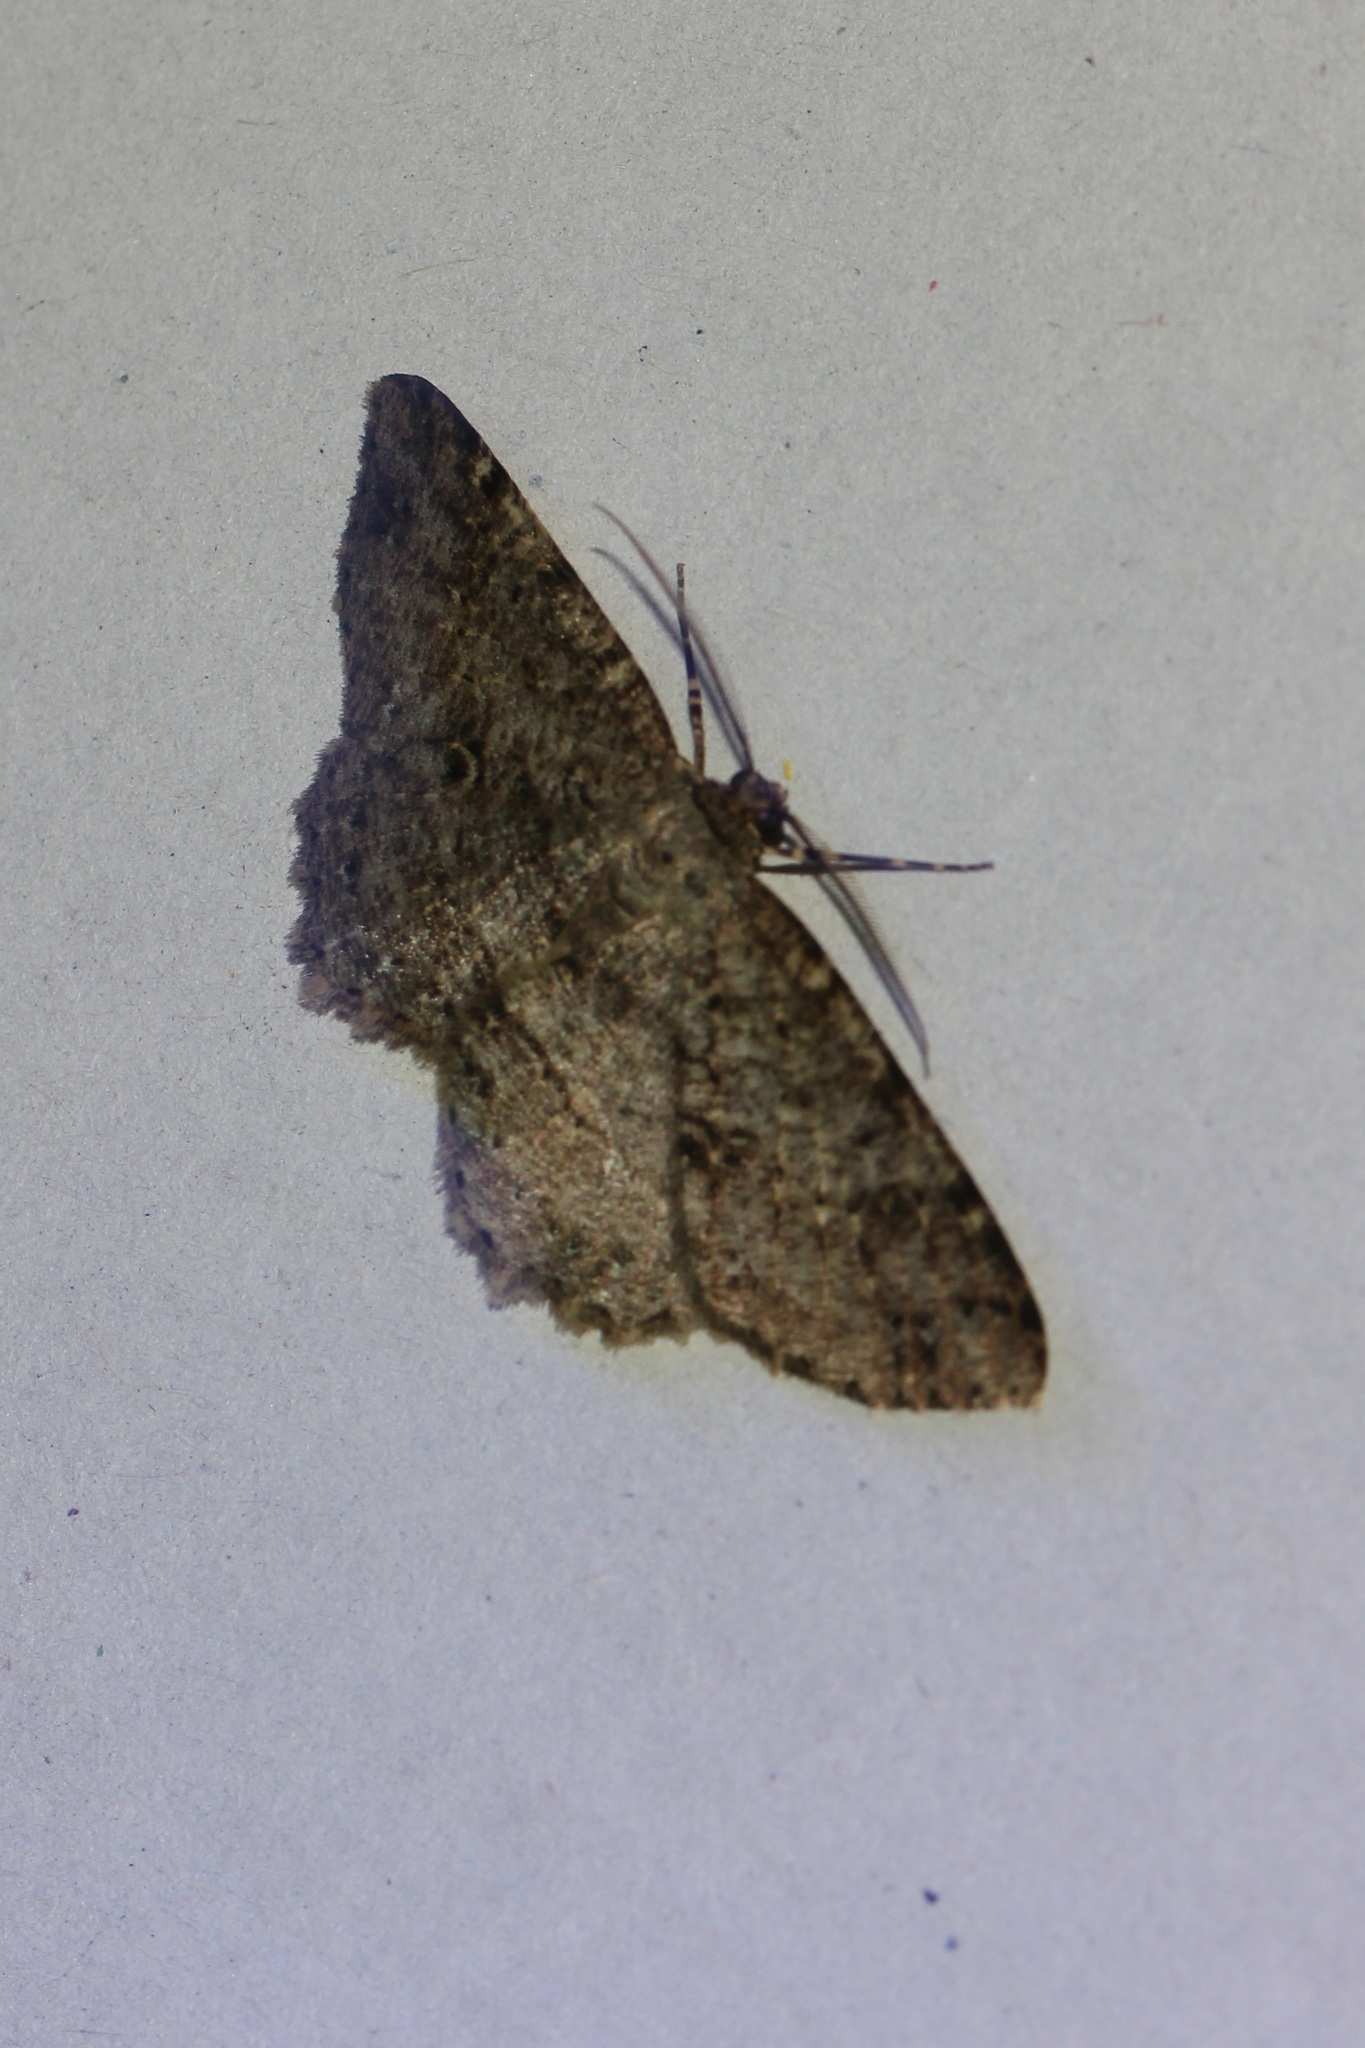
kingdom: Animalia
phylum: Arthropoda
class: Insecta
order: Lepidoptera
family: Geometridae
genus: Melanolophia
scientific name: Melanolophia canadaria
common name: Canadian melanolophia
